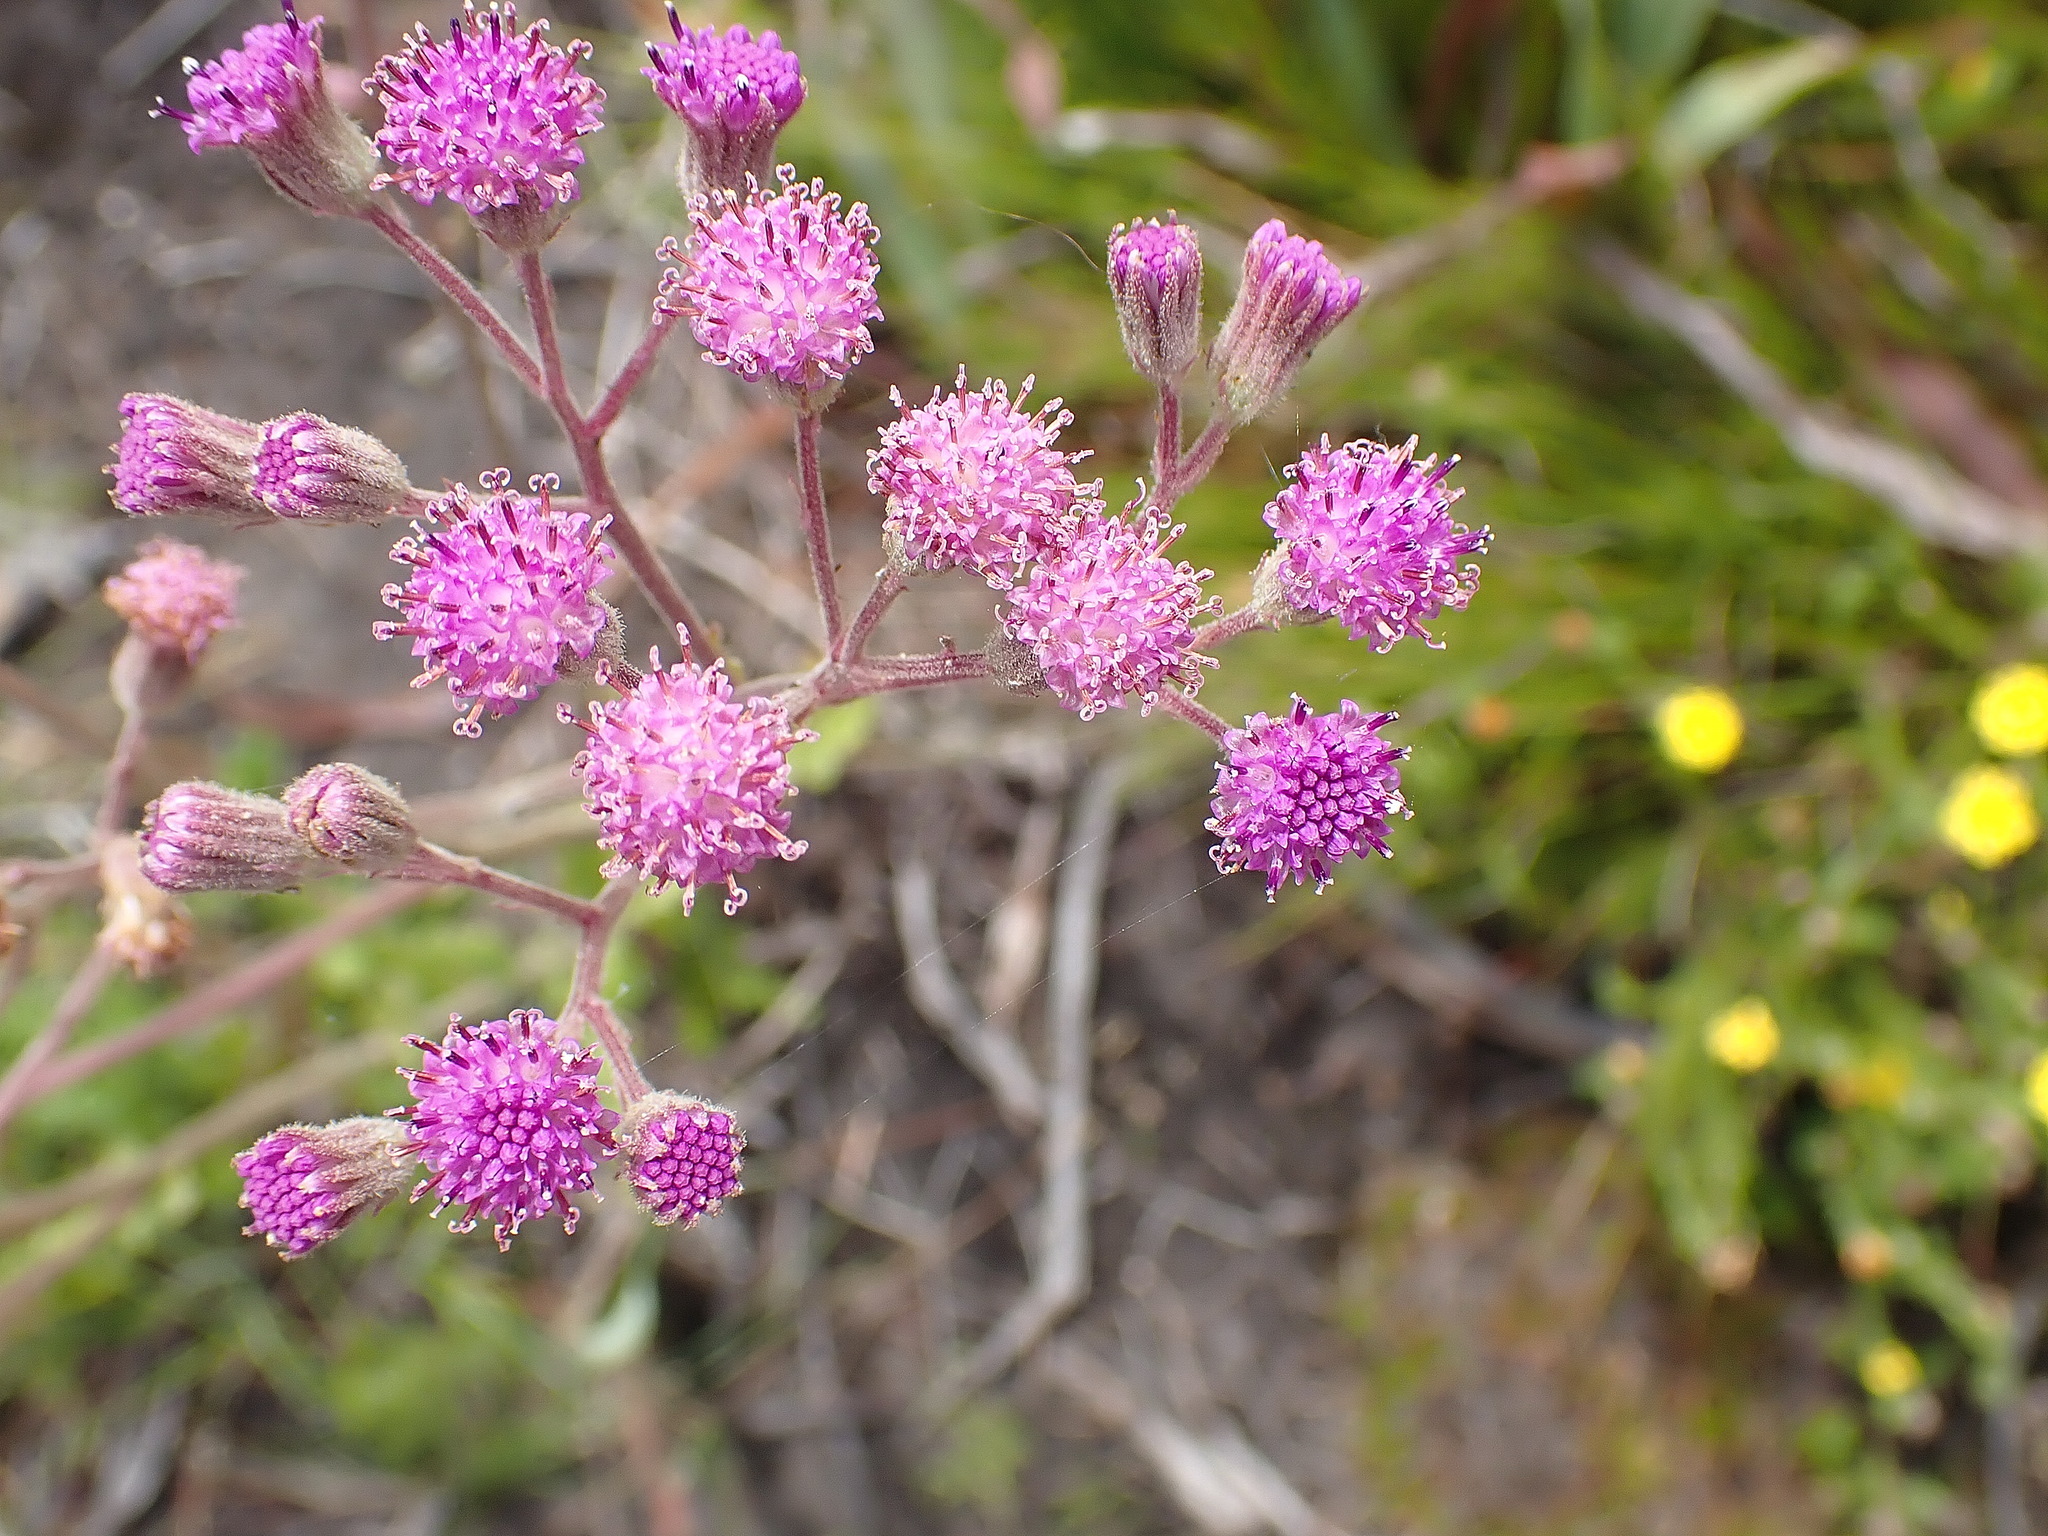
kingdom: Plantae
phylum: Tracheophyta
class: Magnoliopsida
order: Asterales
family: Asteraceae
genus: Senecio
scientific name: Senecio purpureus
